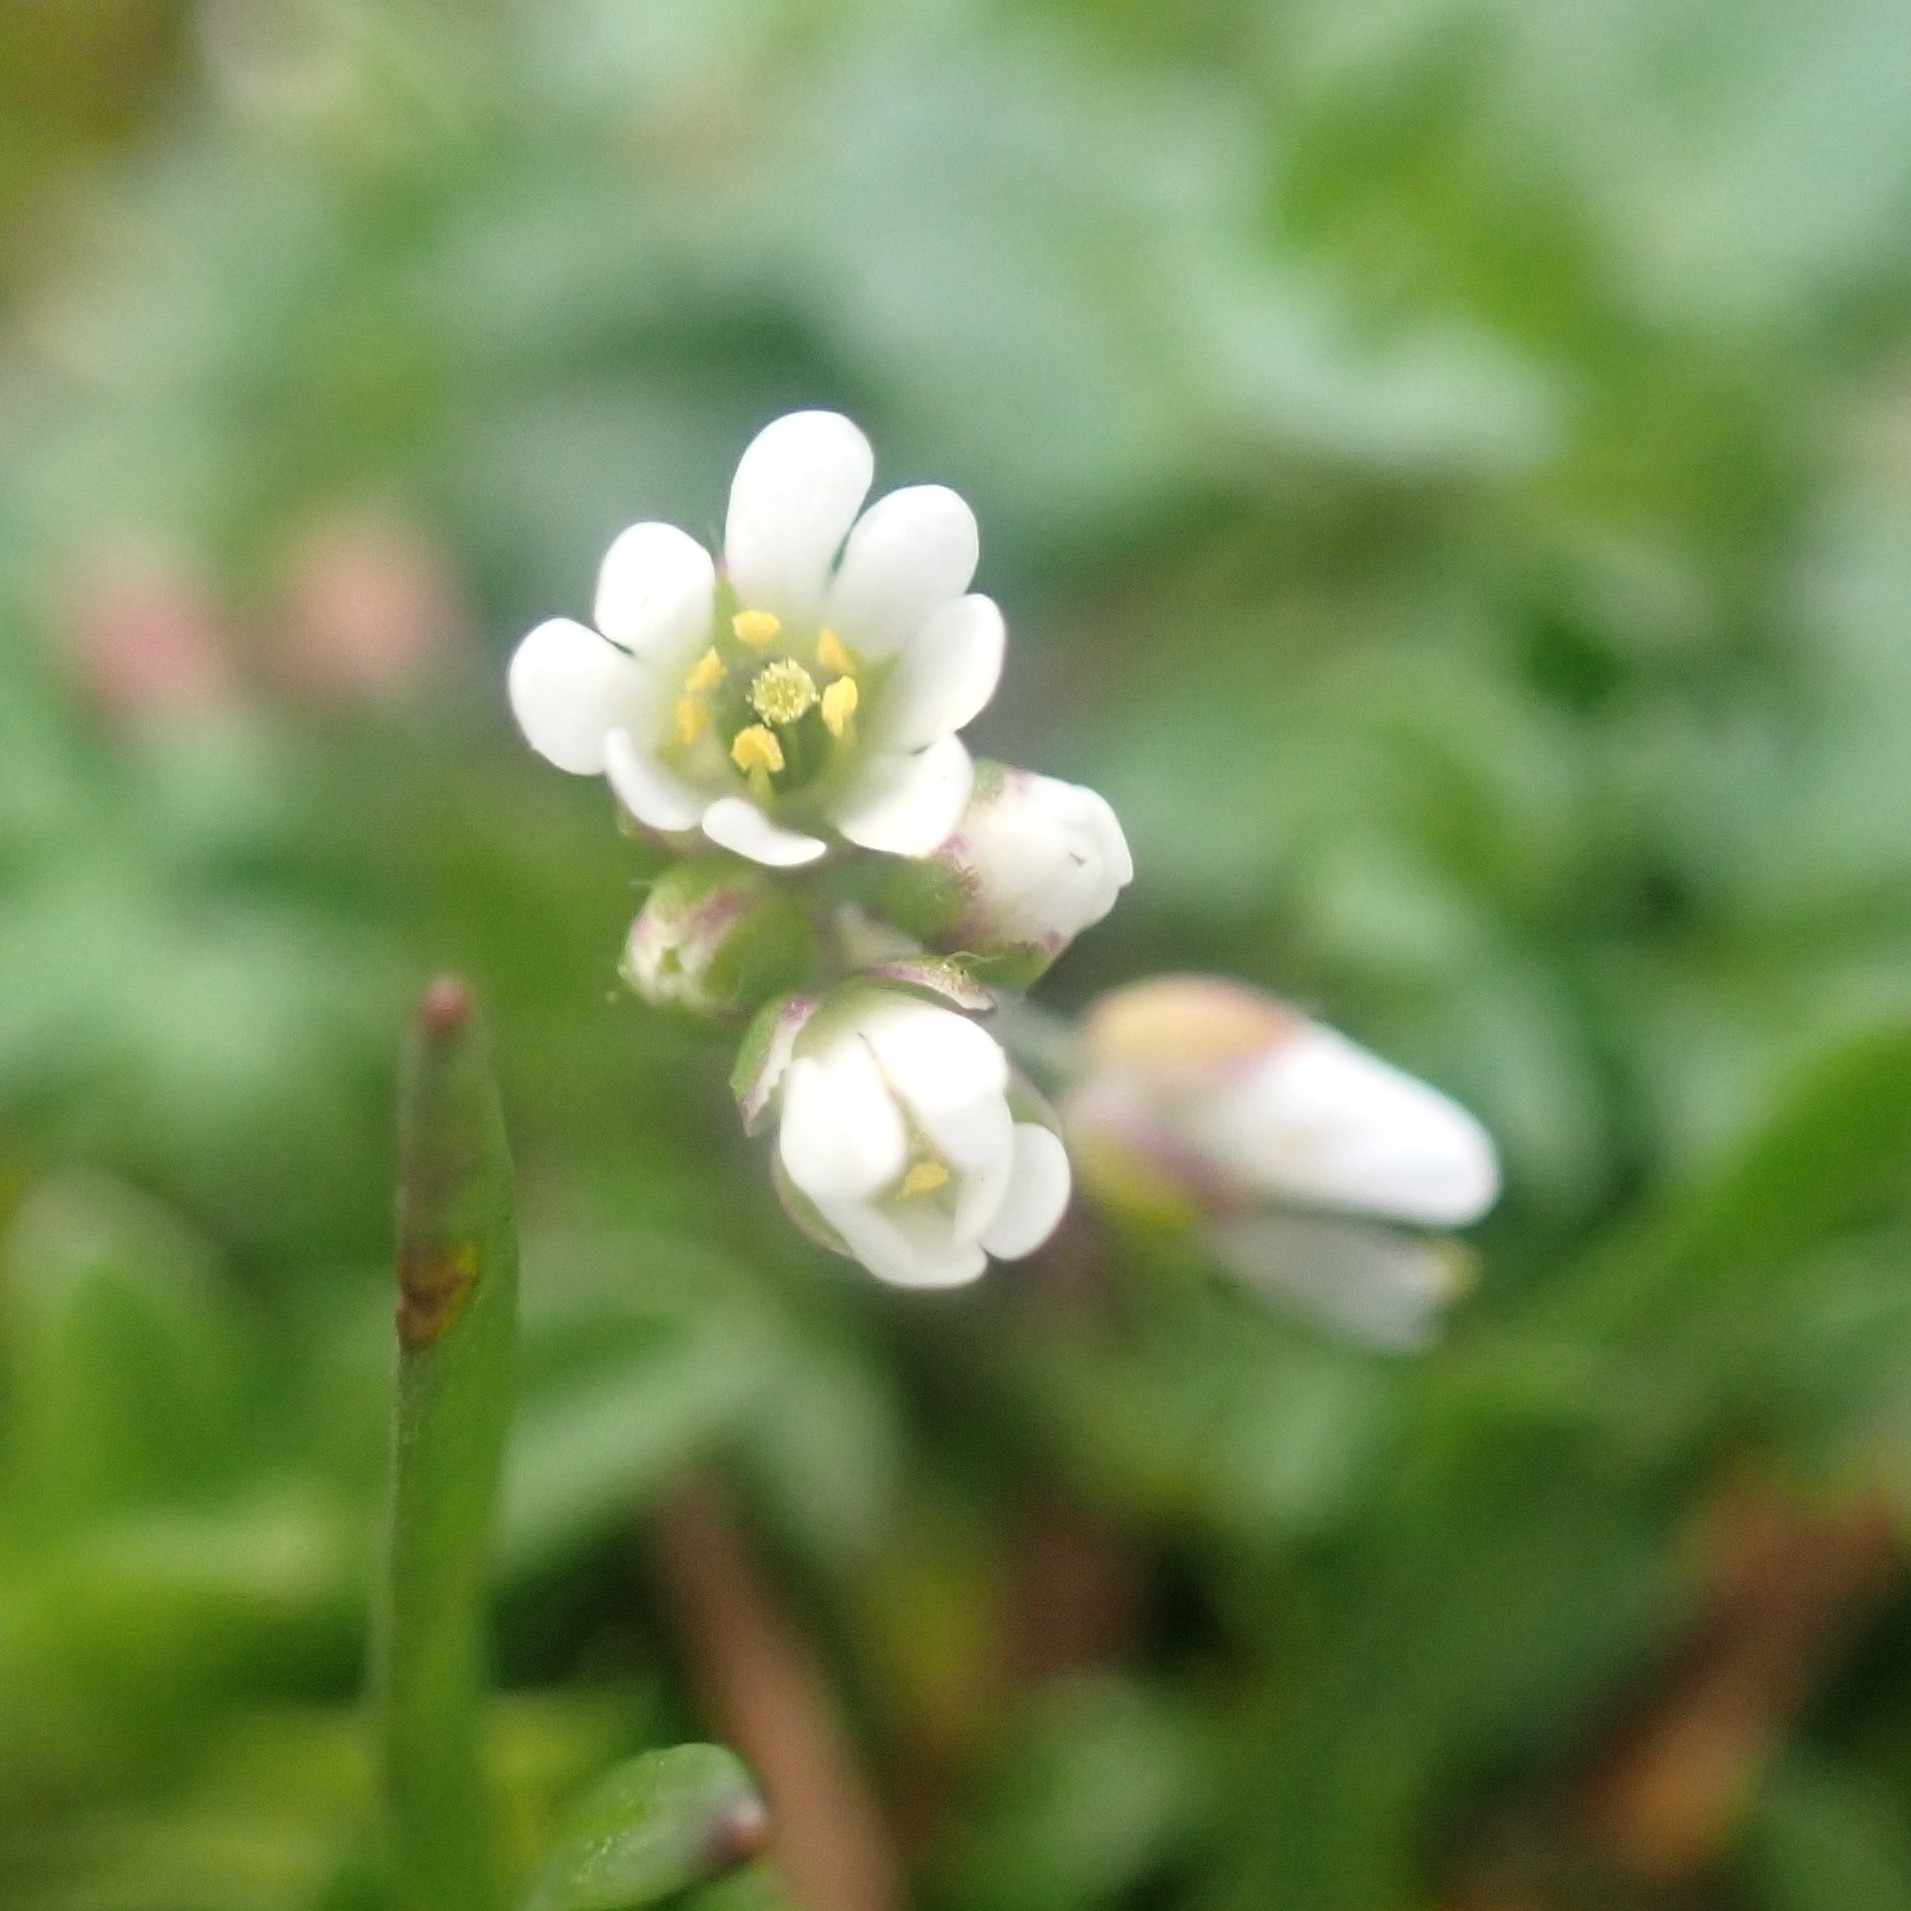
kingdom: Plantae
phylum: Tracheophyta
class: Magnoliopsida
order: Brassicales
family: Brassicaceae
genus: Capsella
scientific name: Capsella bursa-pastoris
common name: Shepherd's purse
